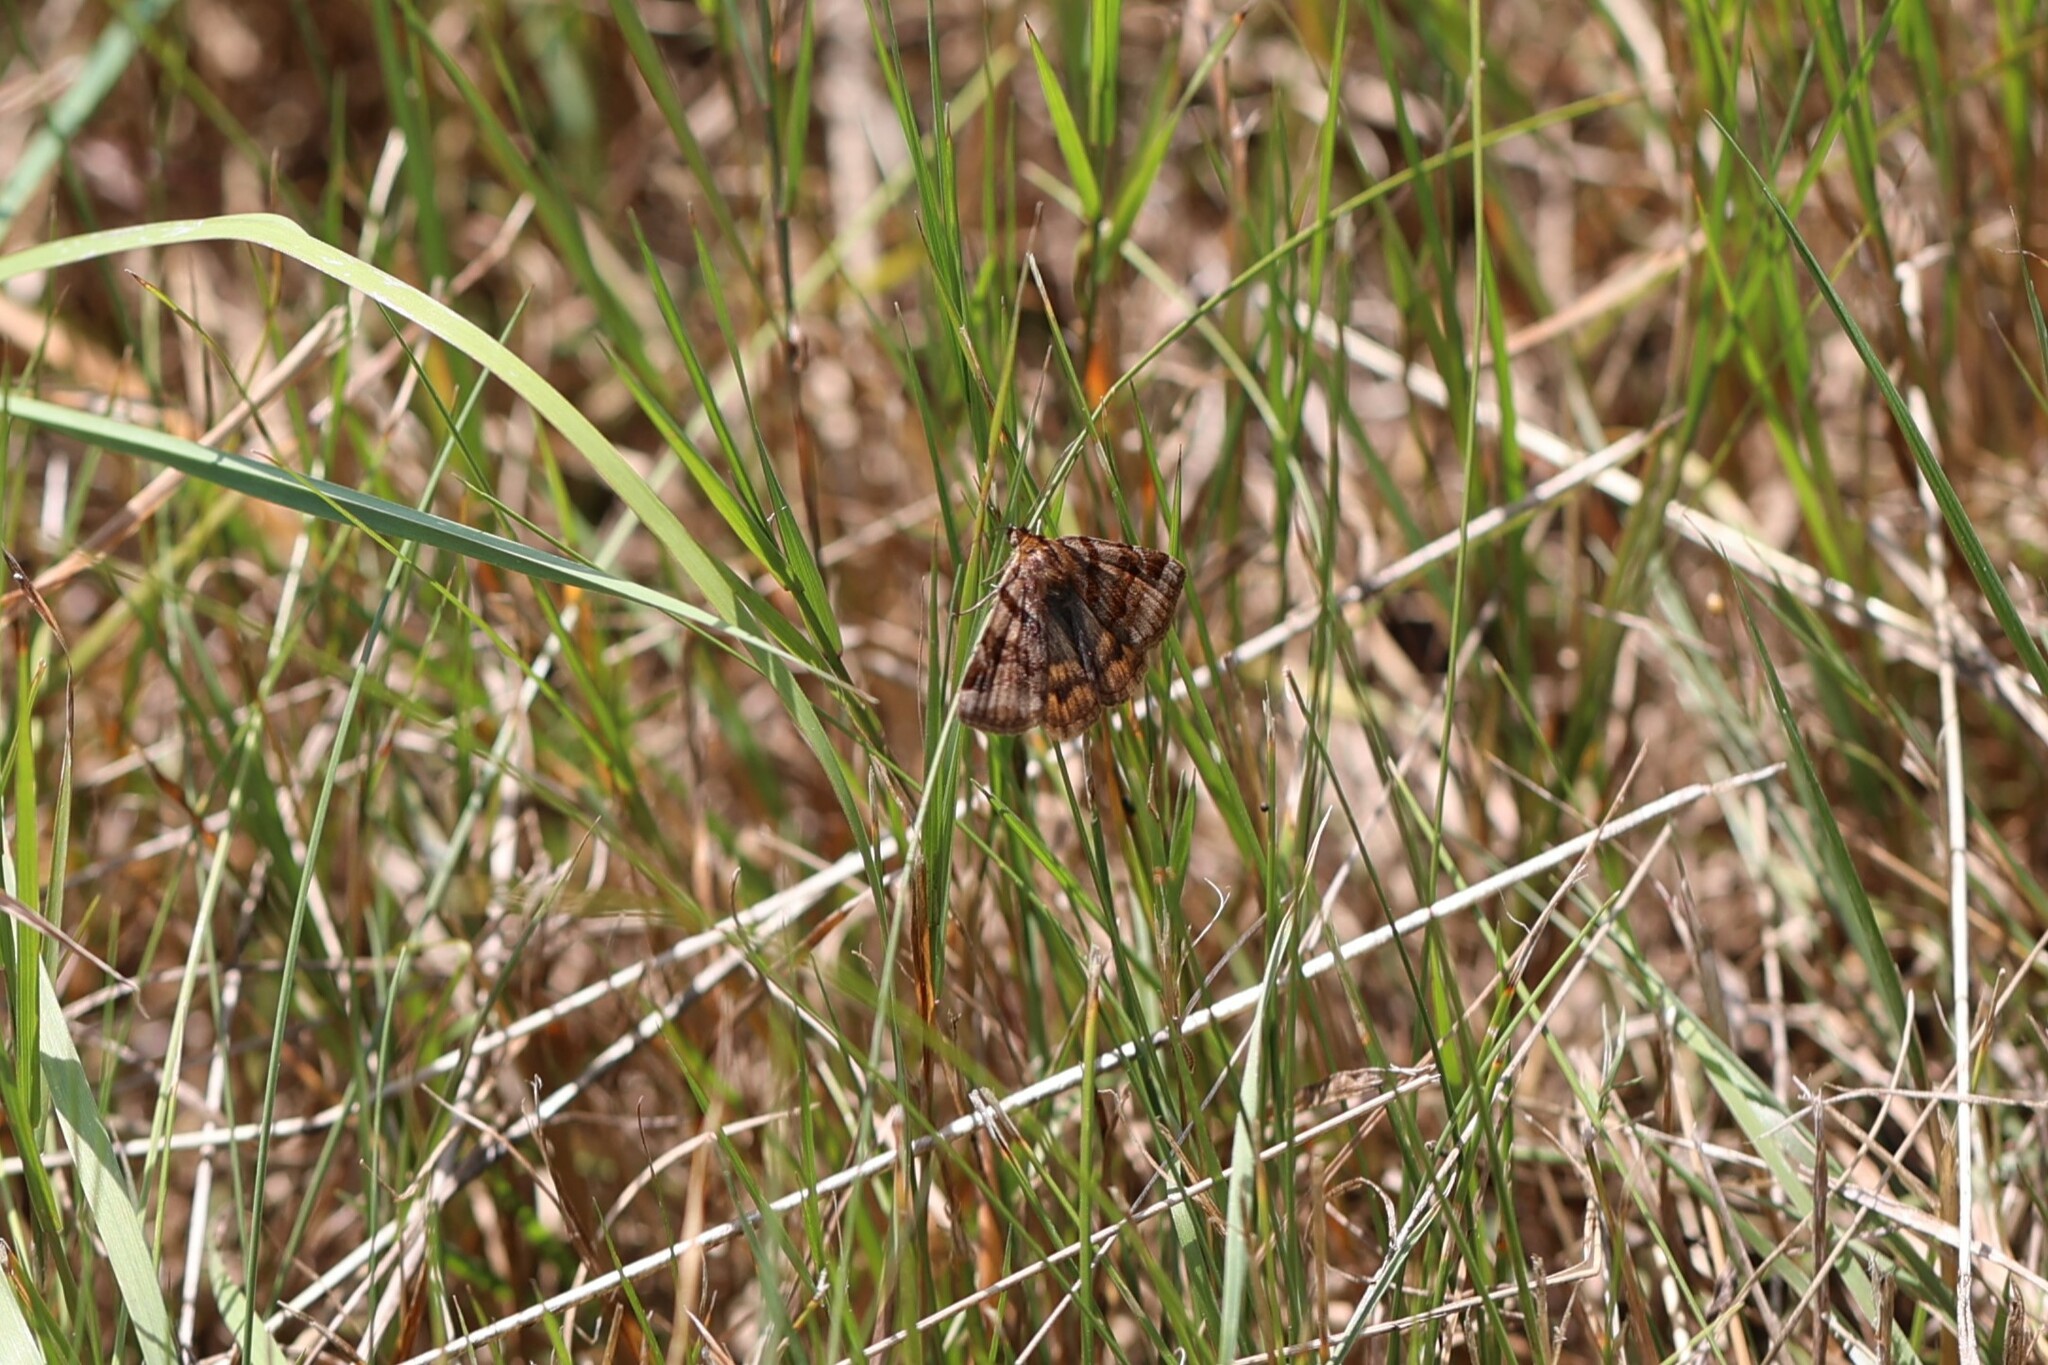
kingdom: Animalia
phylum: Arthropoda
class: Insecta
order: Lepidoptera
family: Erebidae
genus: Euclidia
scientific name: Euclidia glyphica
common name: Burnet companion
